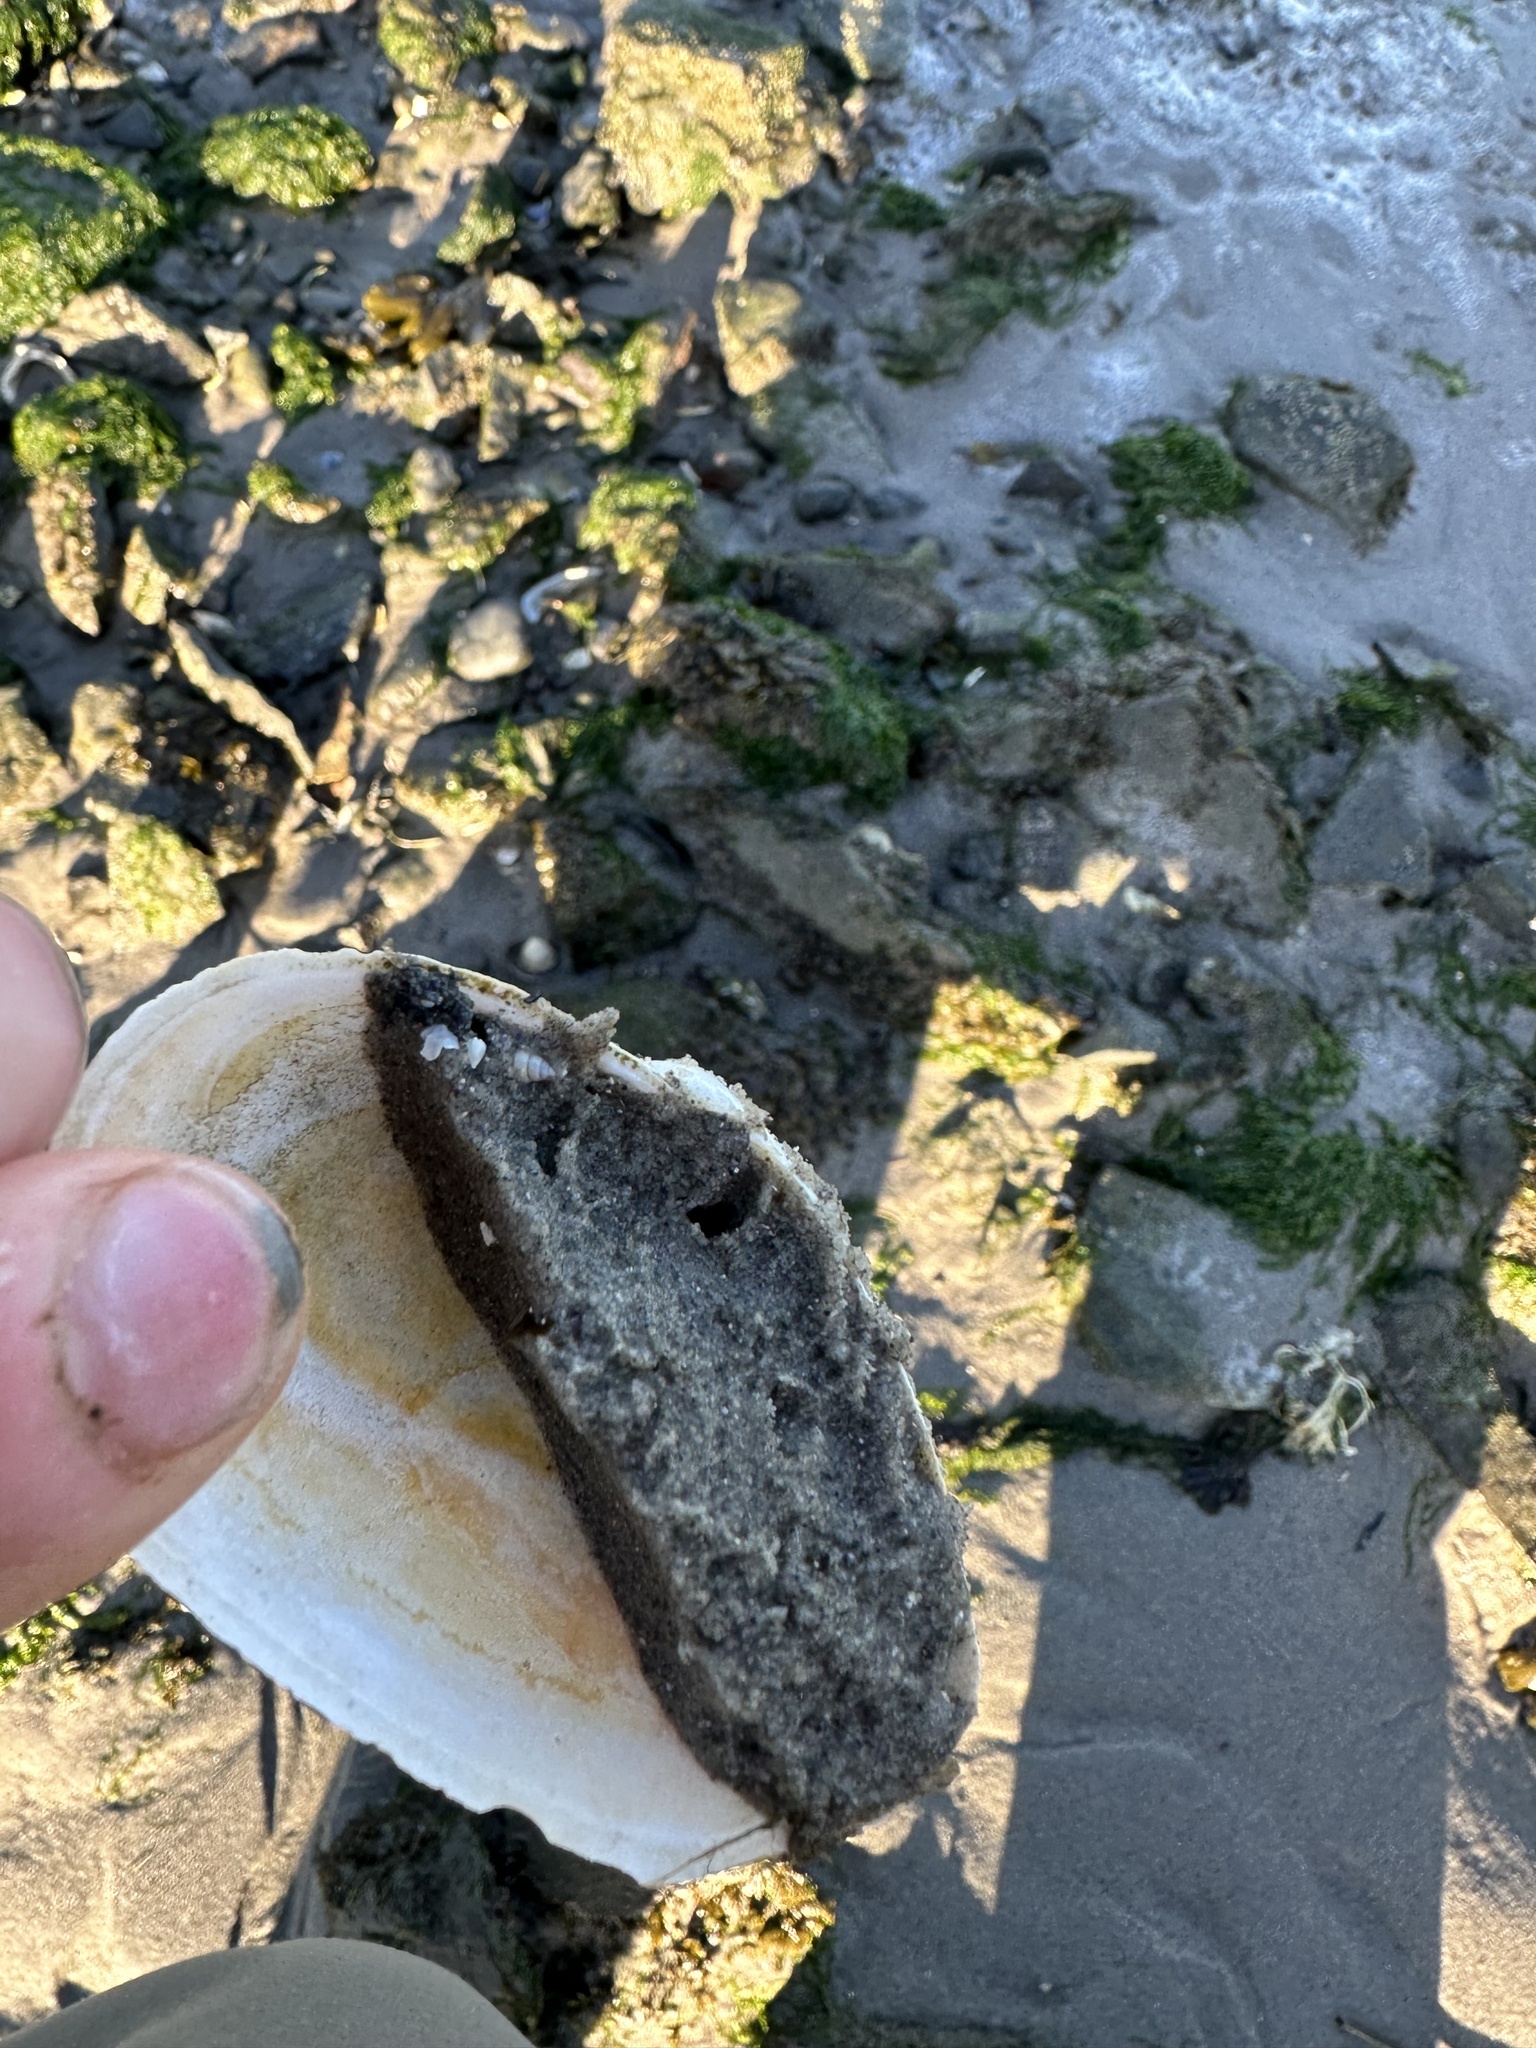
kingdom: Animalia
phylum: Mollusca
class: Bivalvia
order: Myida
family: Myidae
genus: Mya
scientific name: Mya arenaria
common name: Soft-shelled clam
